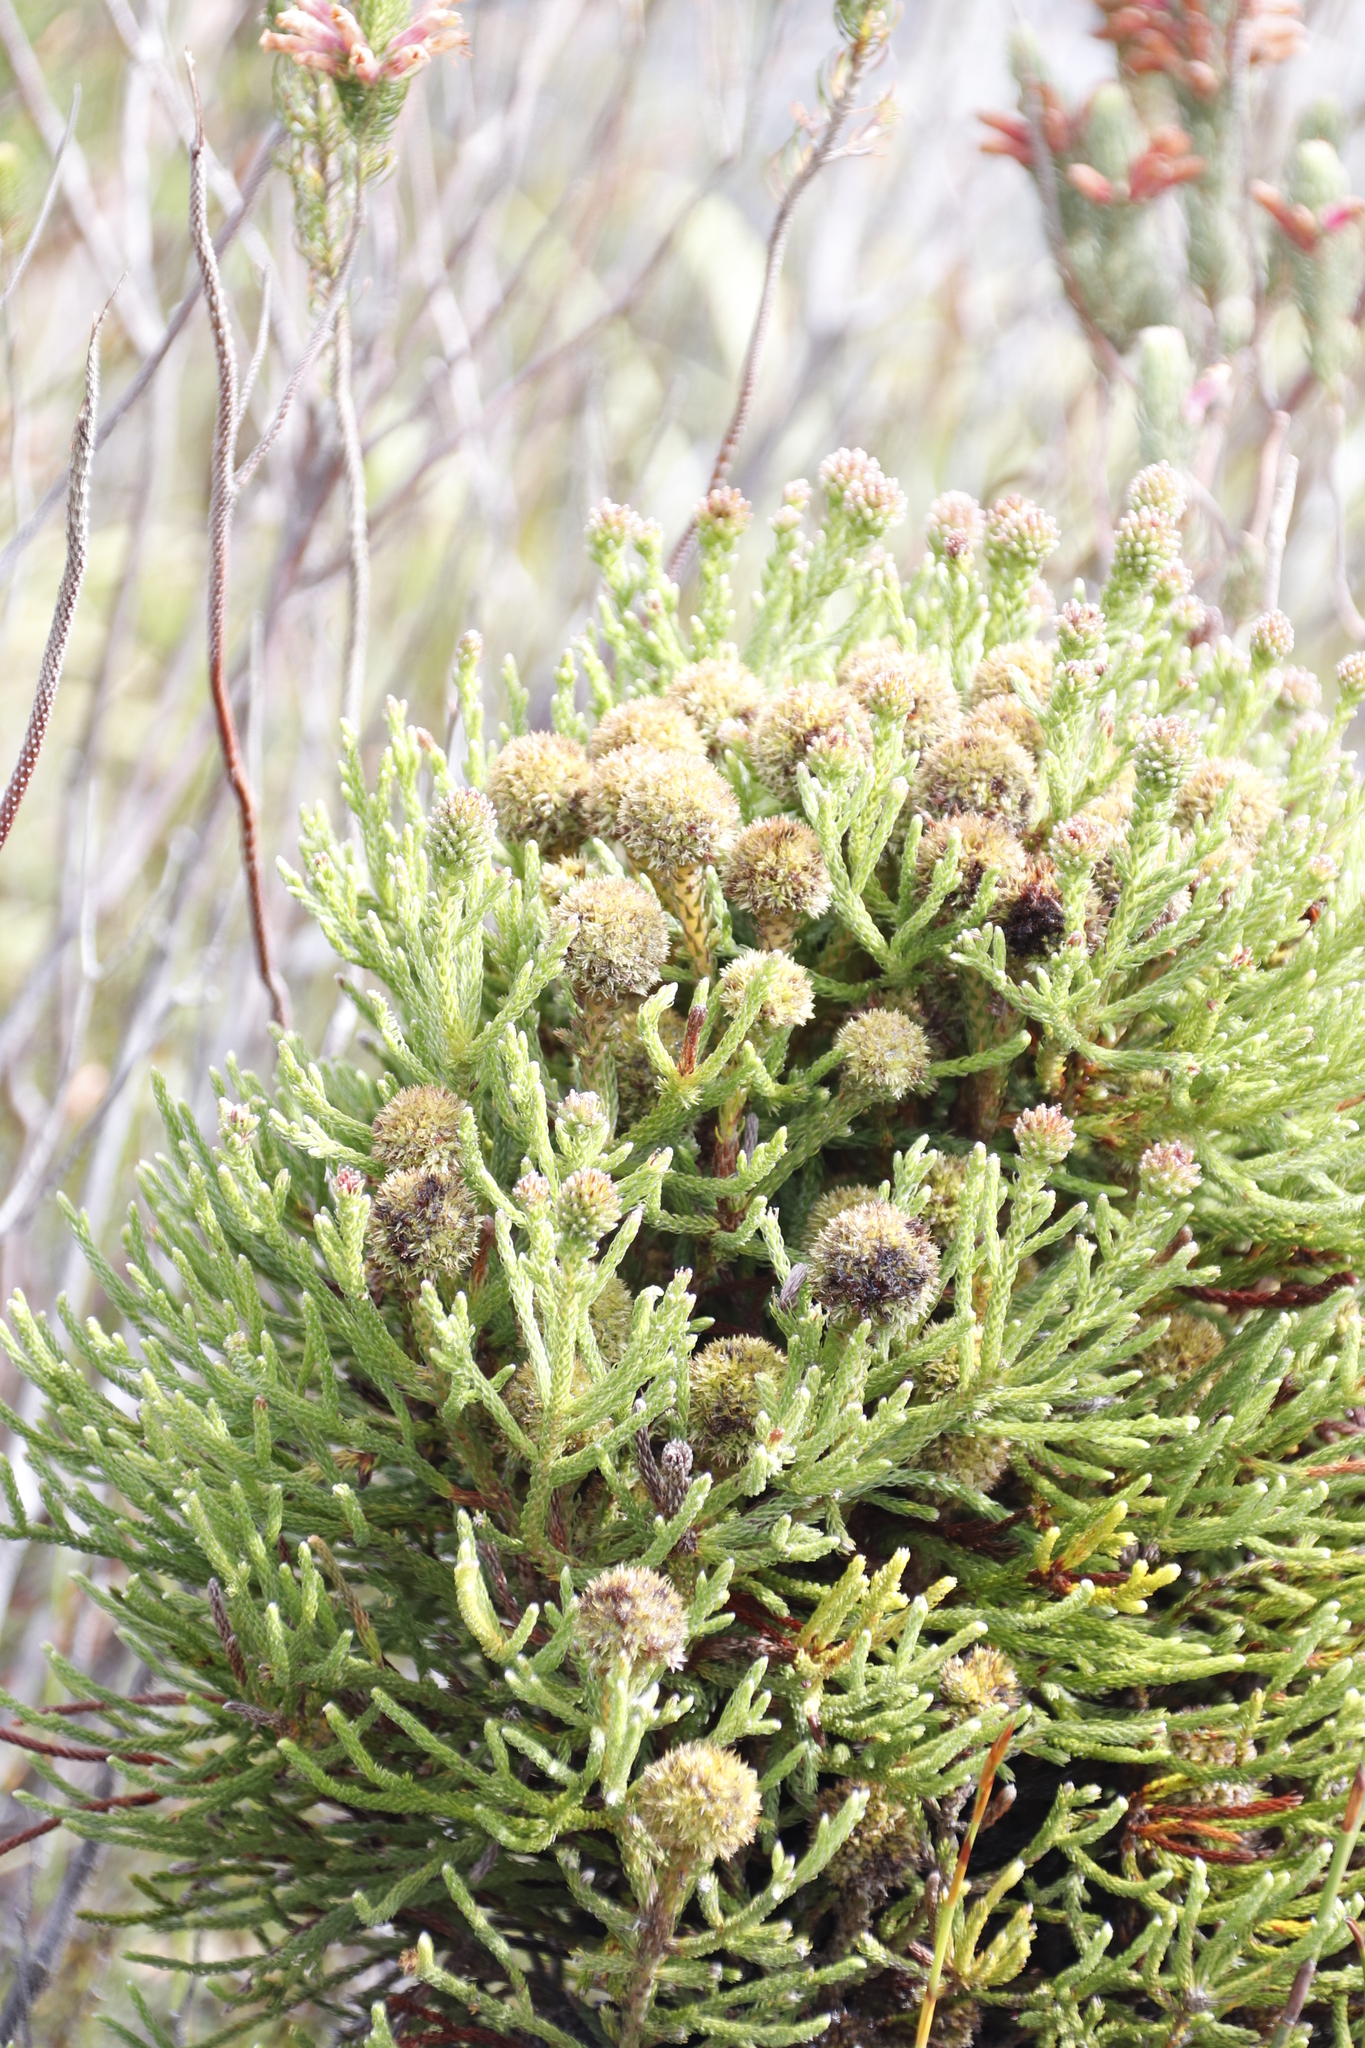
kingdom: Plantae
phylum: Tracheophyta
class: Magnoliopsida
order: Bruniales
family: Bruniaceae
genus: Brunia
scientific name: Brunia fragarioides
